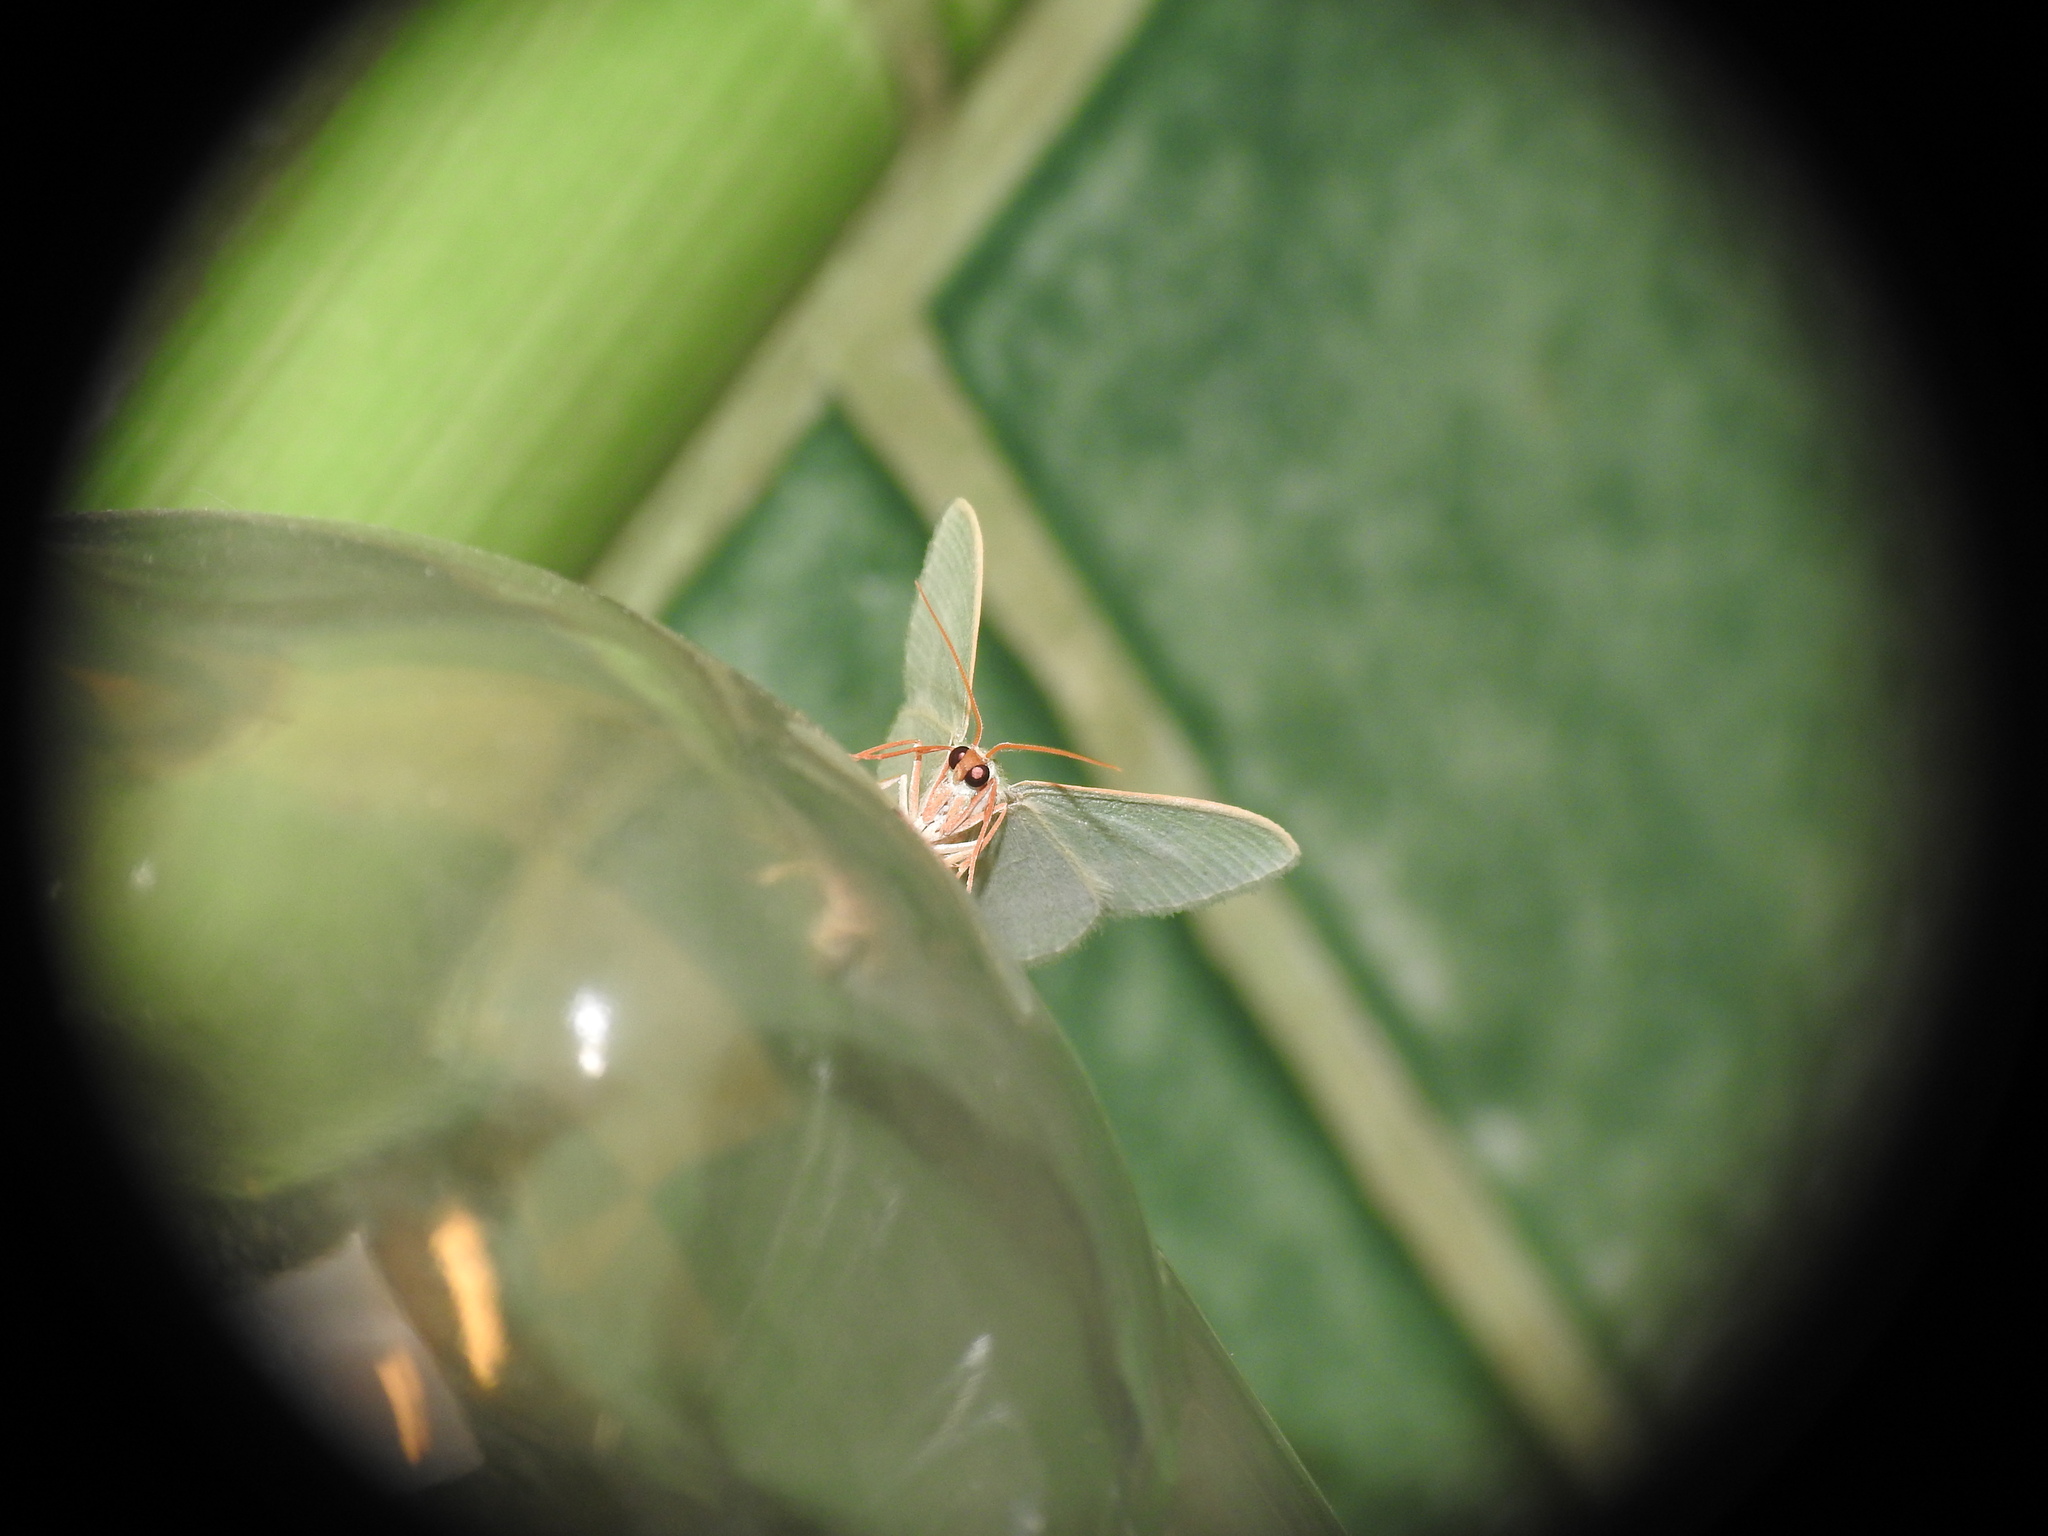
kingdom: Animalia
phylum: Arthropoda
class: Insecta
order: Lepidoptera
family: Geometridae
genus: Chlorissa
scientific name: Chlorissa etruscaria
